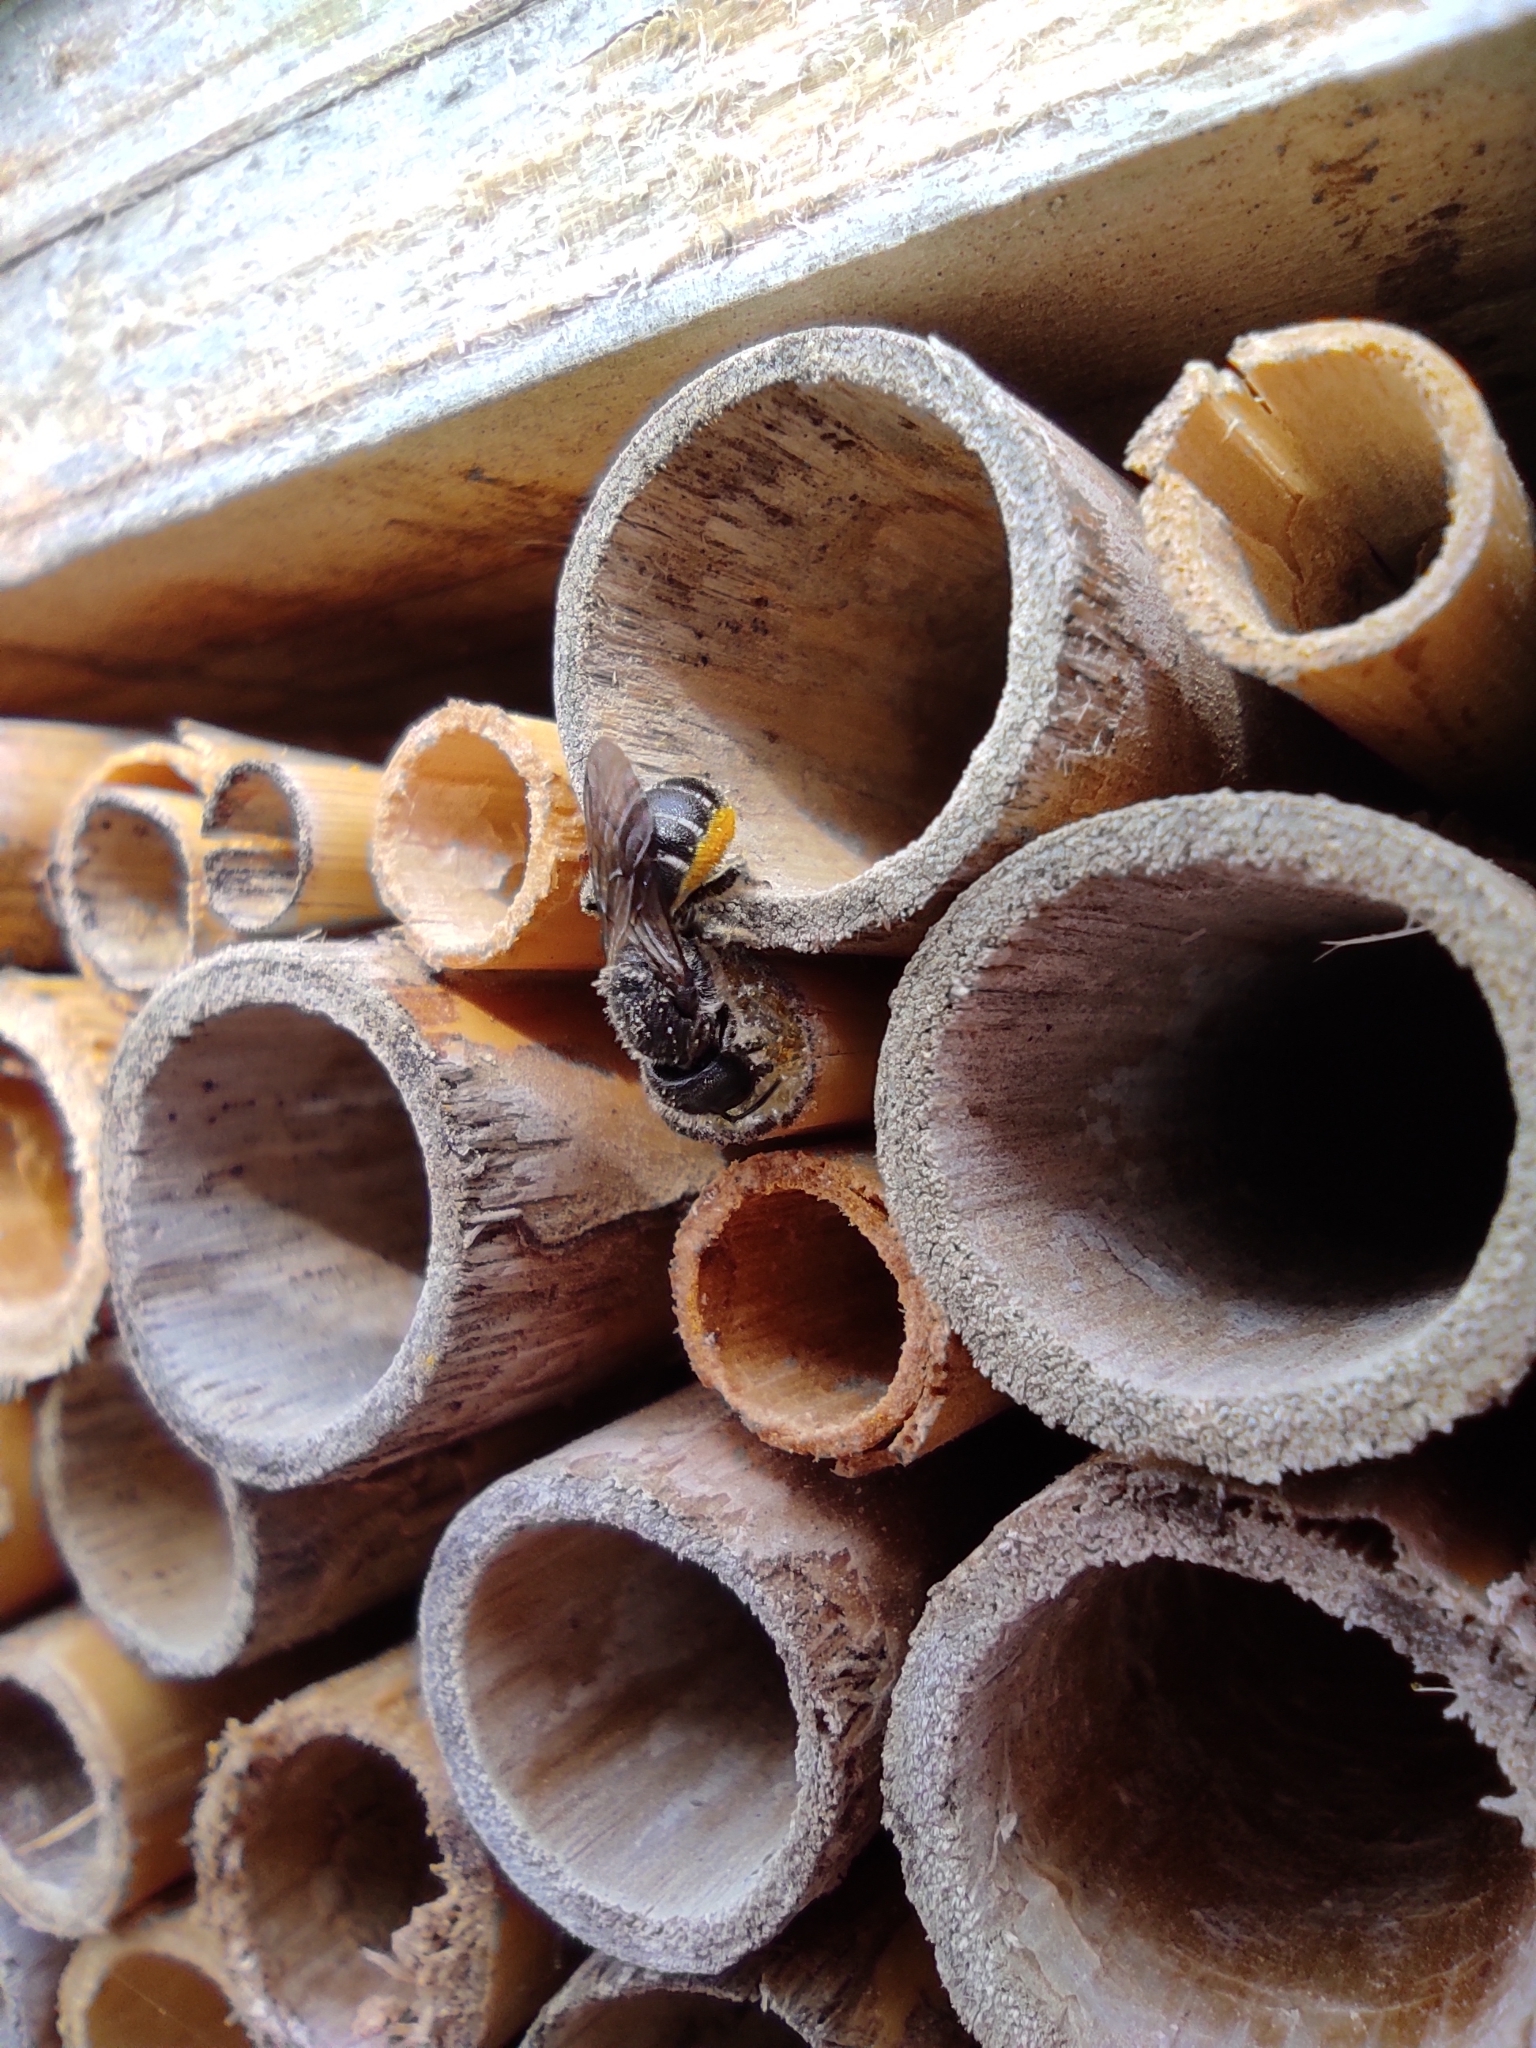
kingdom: Animalia
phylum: Arthropoda
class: Insecta
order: Hymenoptera
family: Megachilidae
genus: Heriades
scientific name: Heriades truncorum
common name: Ridge-saddled carpenter bee
